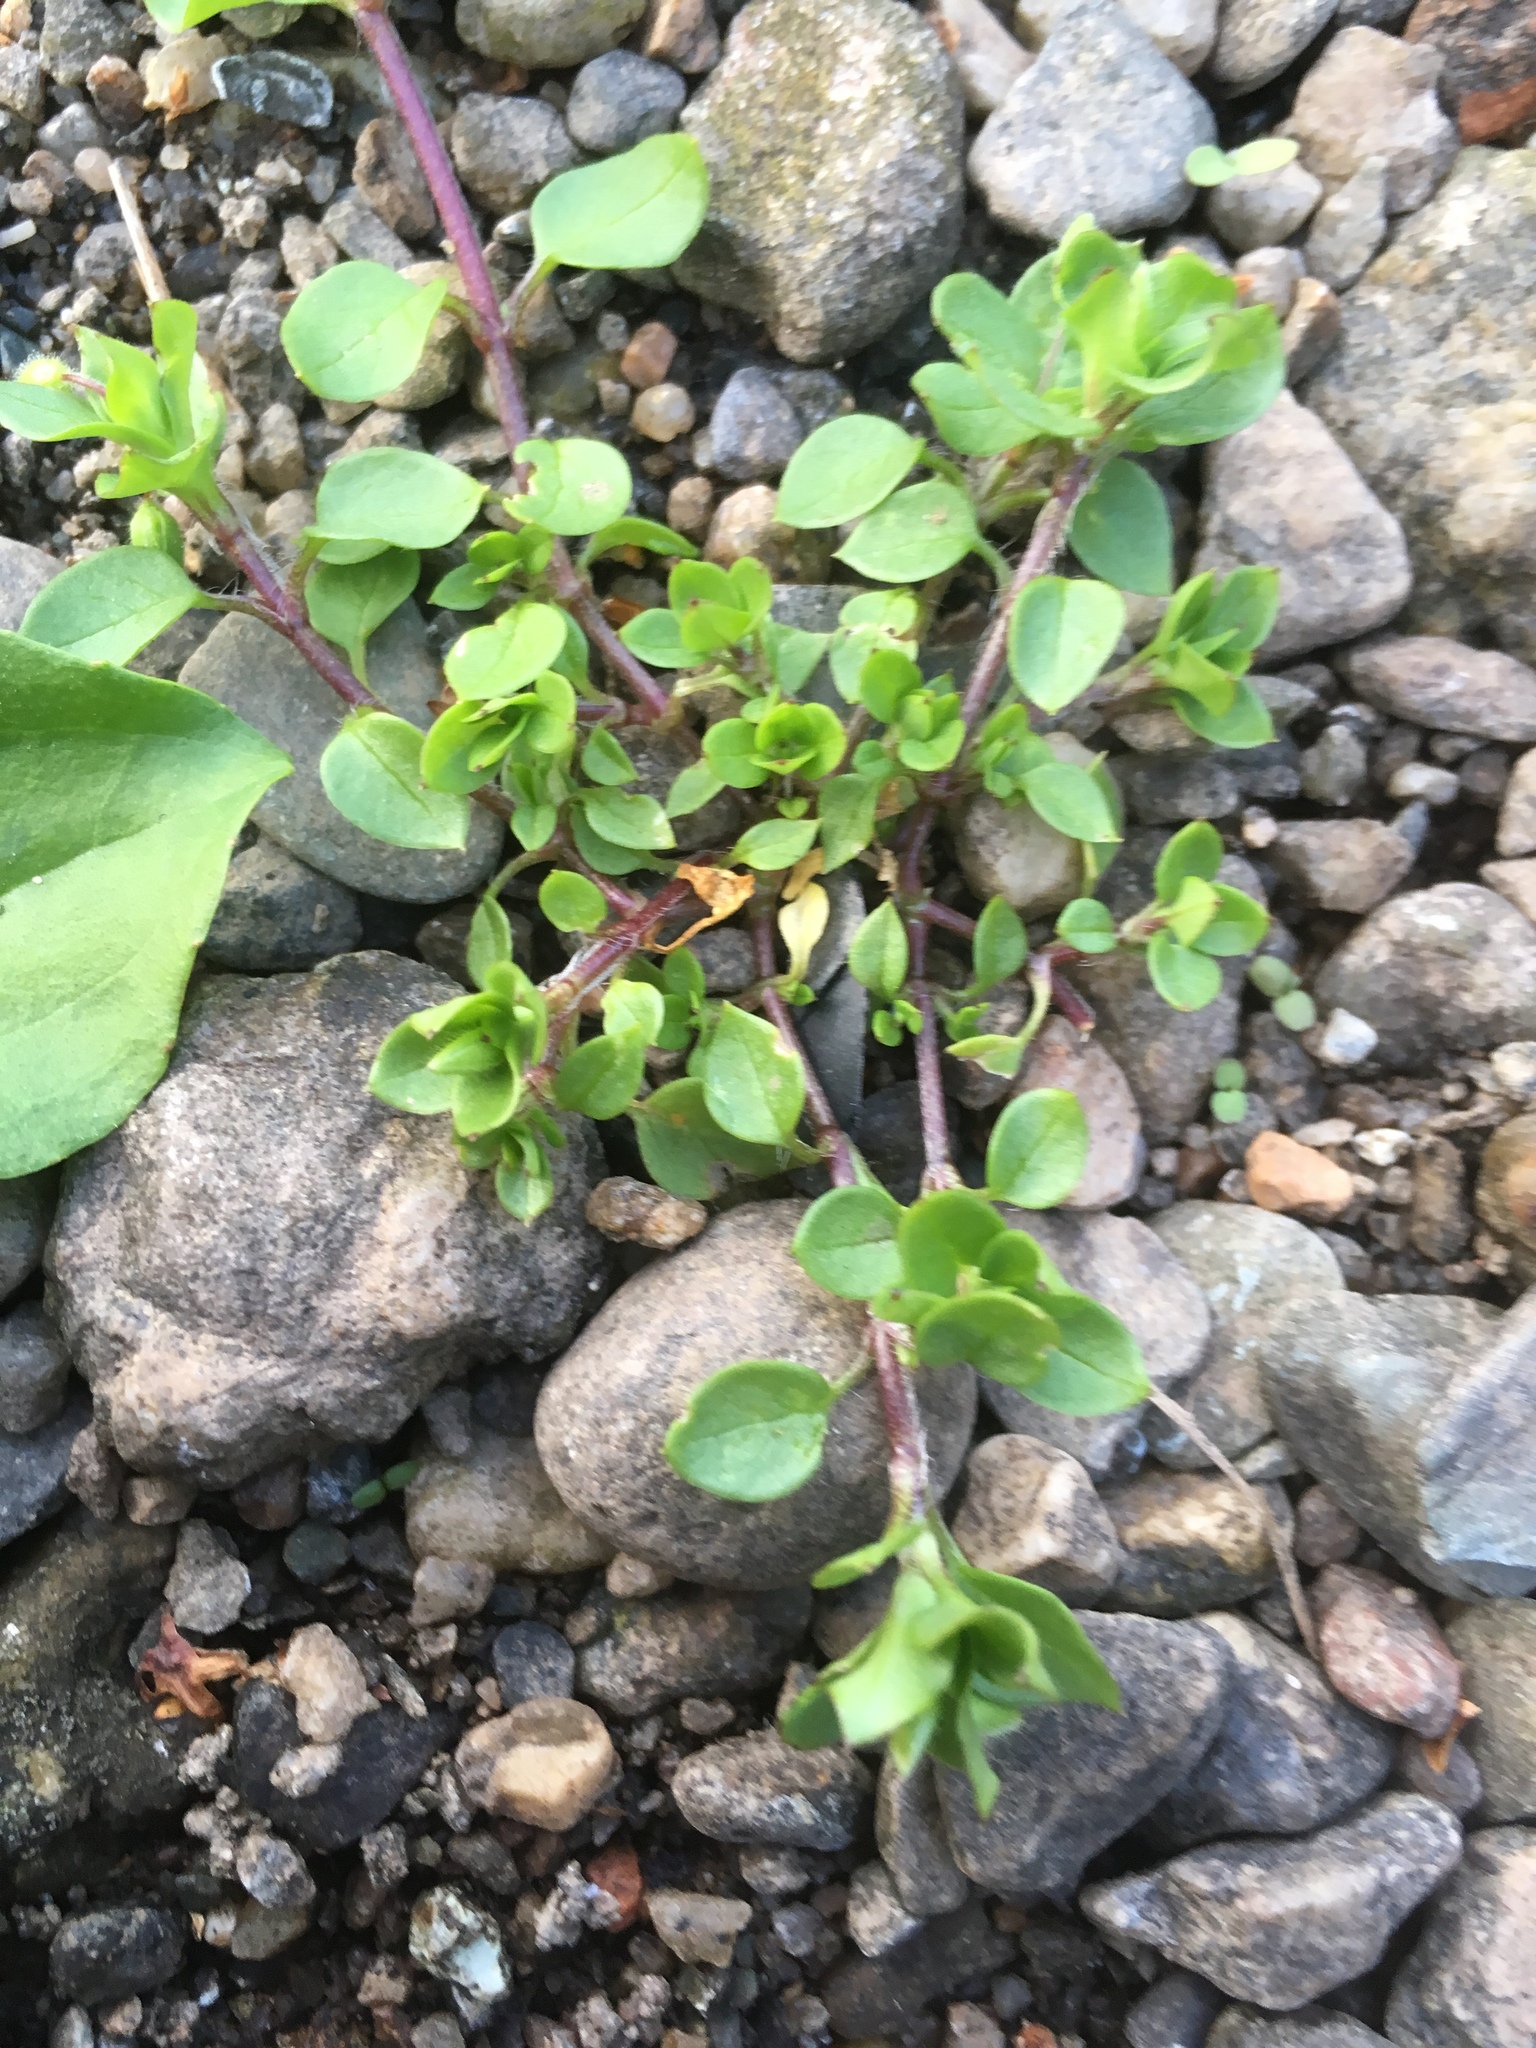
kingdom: Plantae
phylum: Tracheophyta
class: Magnoliopsida
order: Caryophyllales
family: Caryophyllaceae
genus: Stellaria
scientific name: Stellaria media
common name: Common chickweed
